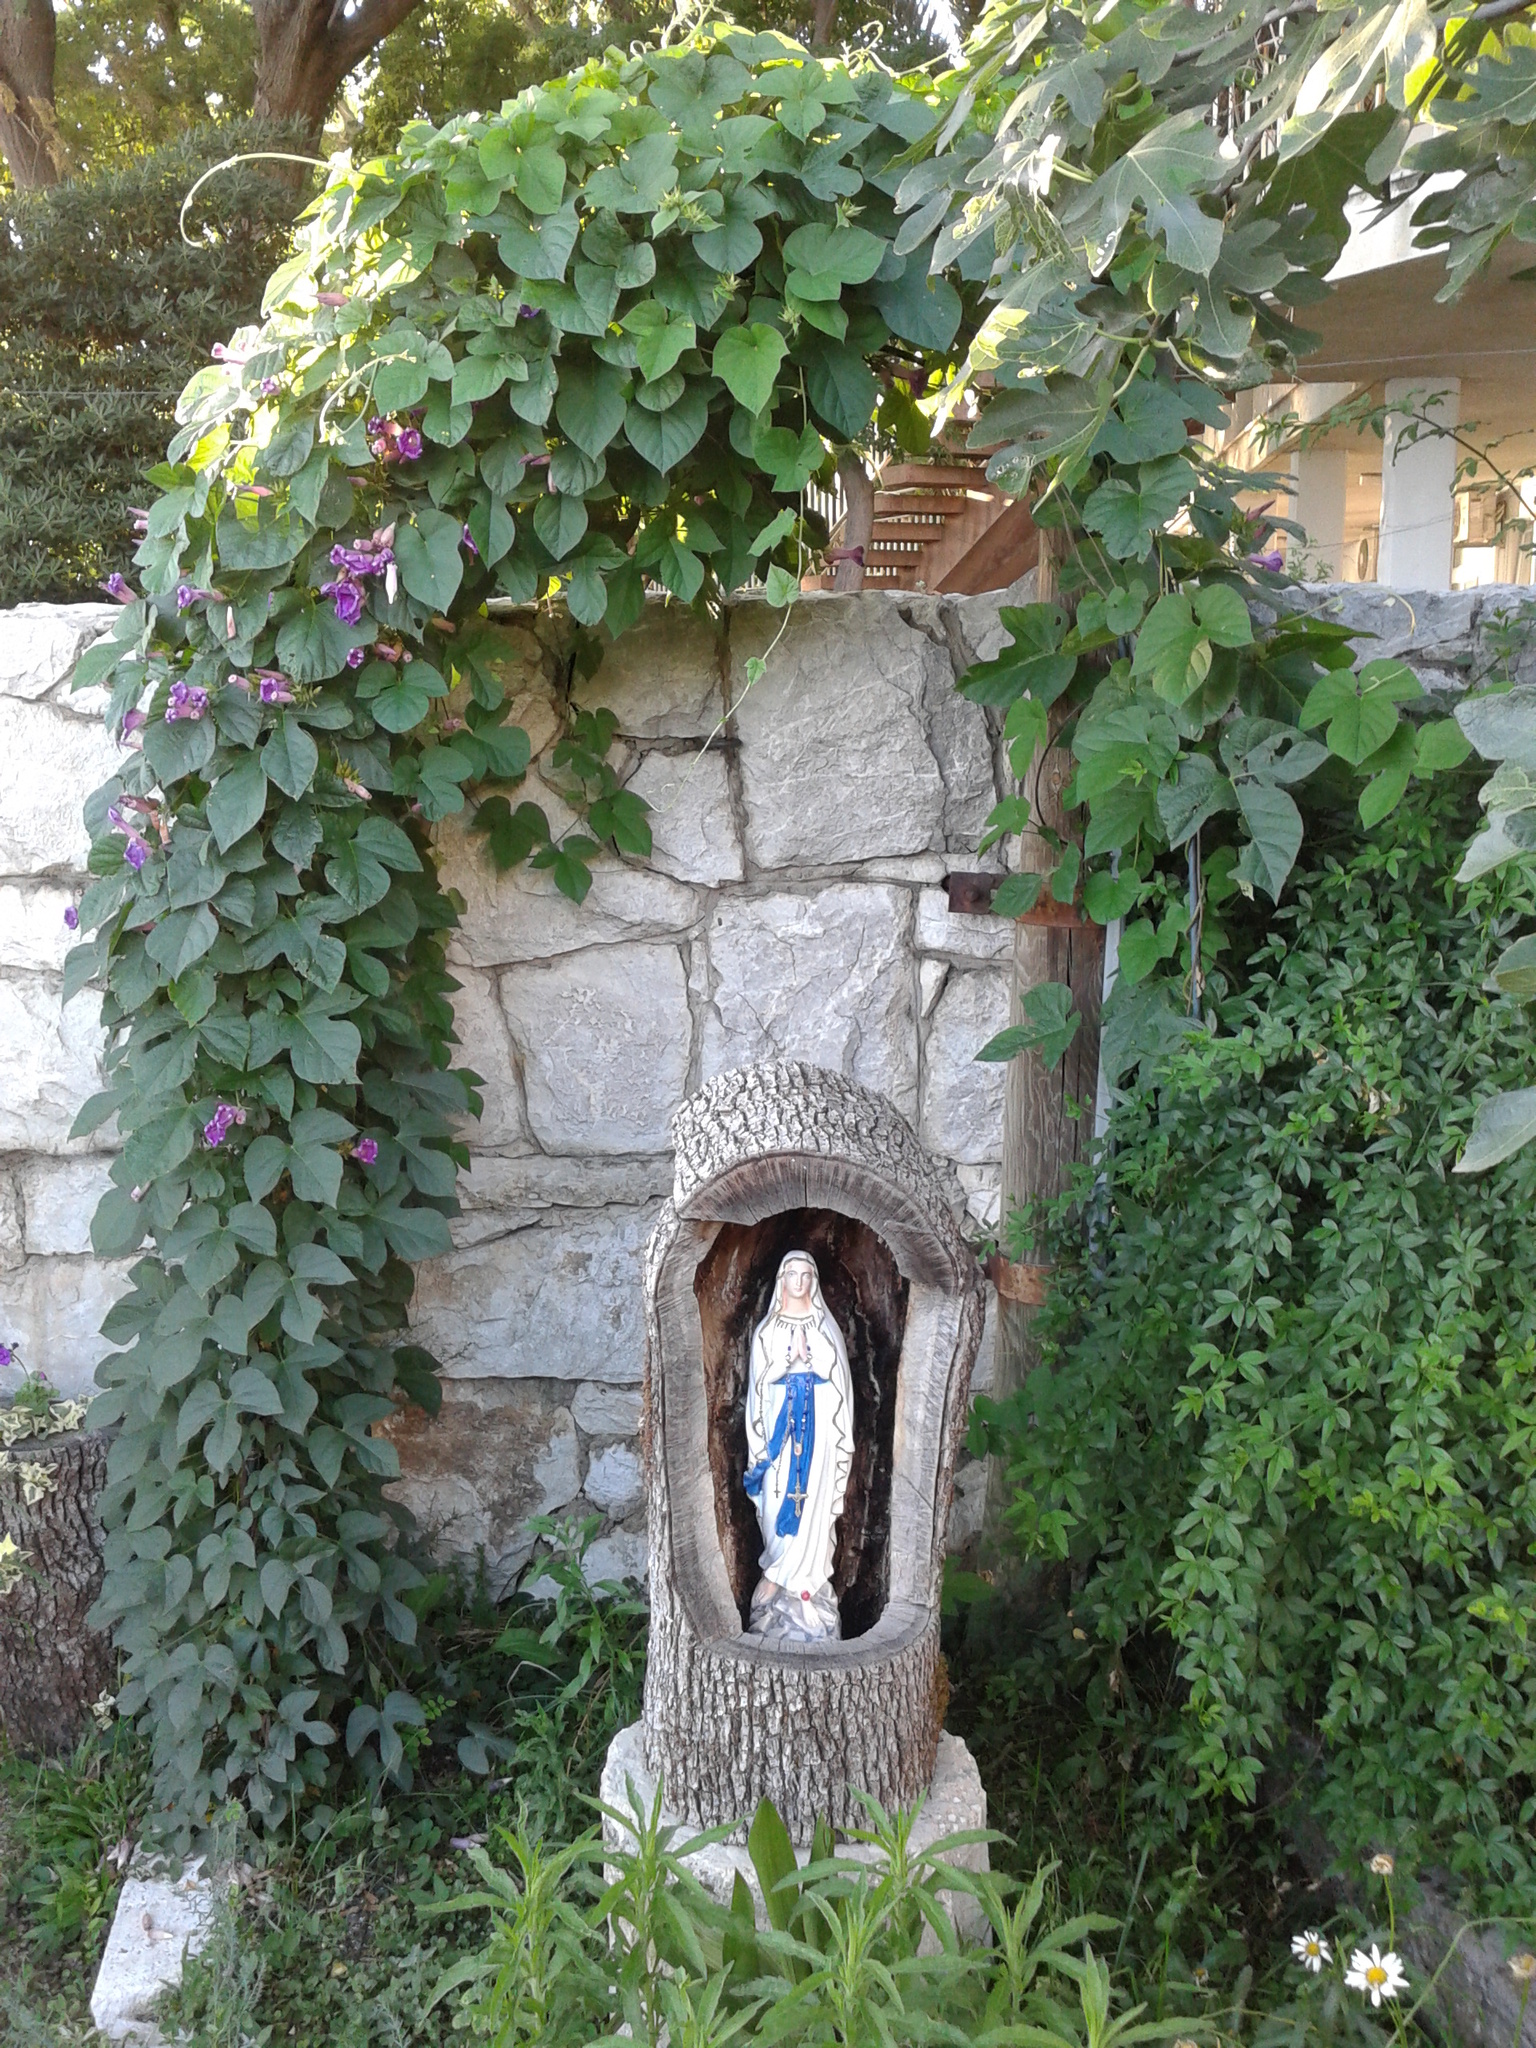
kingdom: Plantae
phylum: Tracheophyta
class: Magnoliopsida
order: Solanales
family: Convolvulaceae
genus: Ipomoea
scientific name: Ipomoea indica
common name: Blue dawnflower
